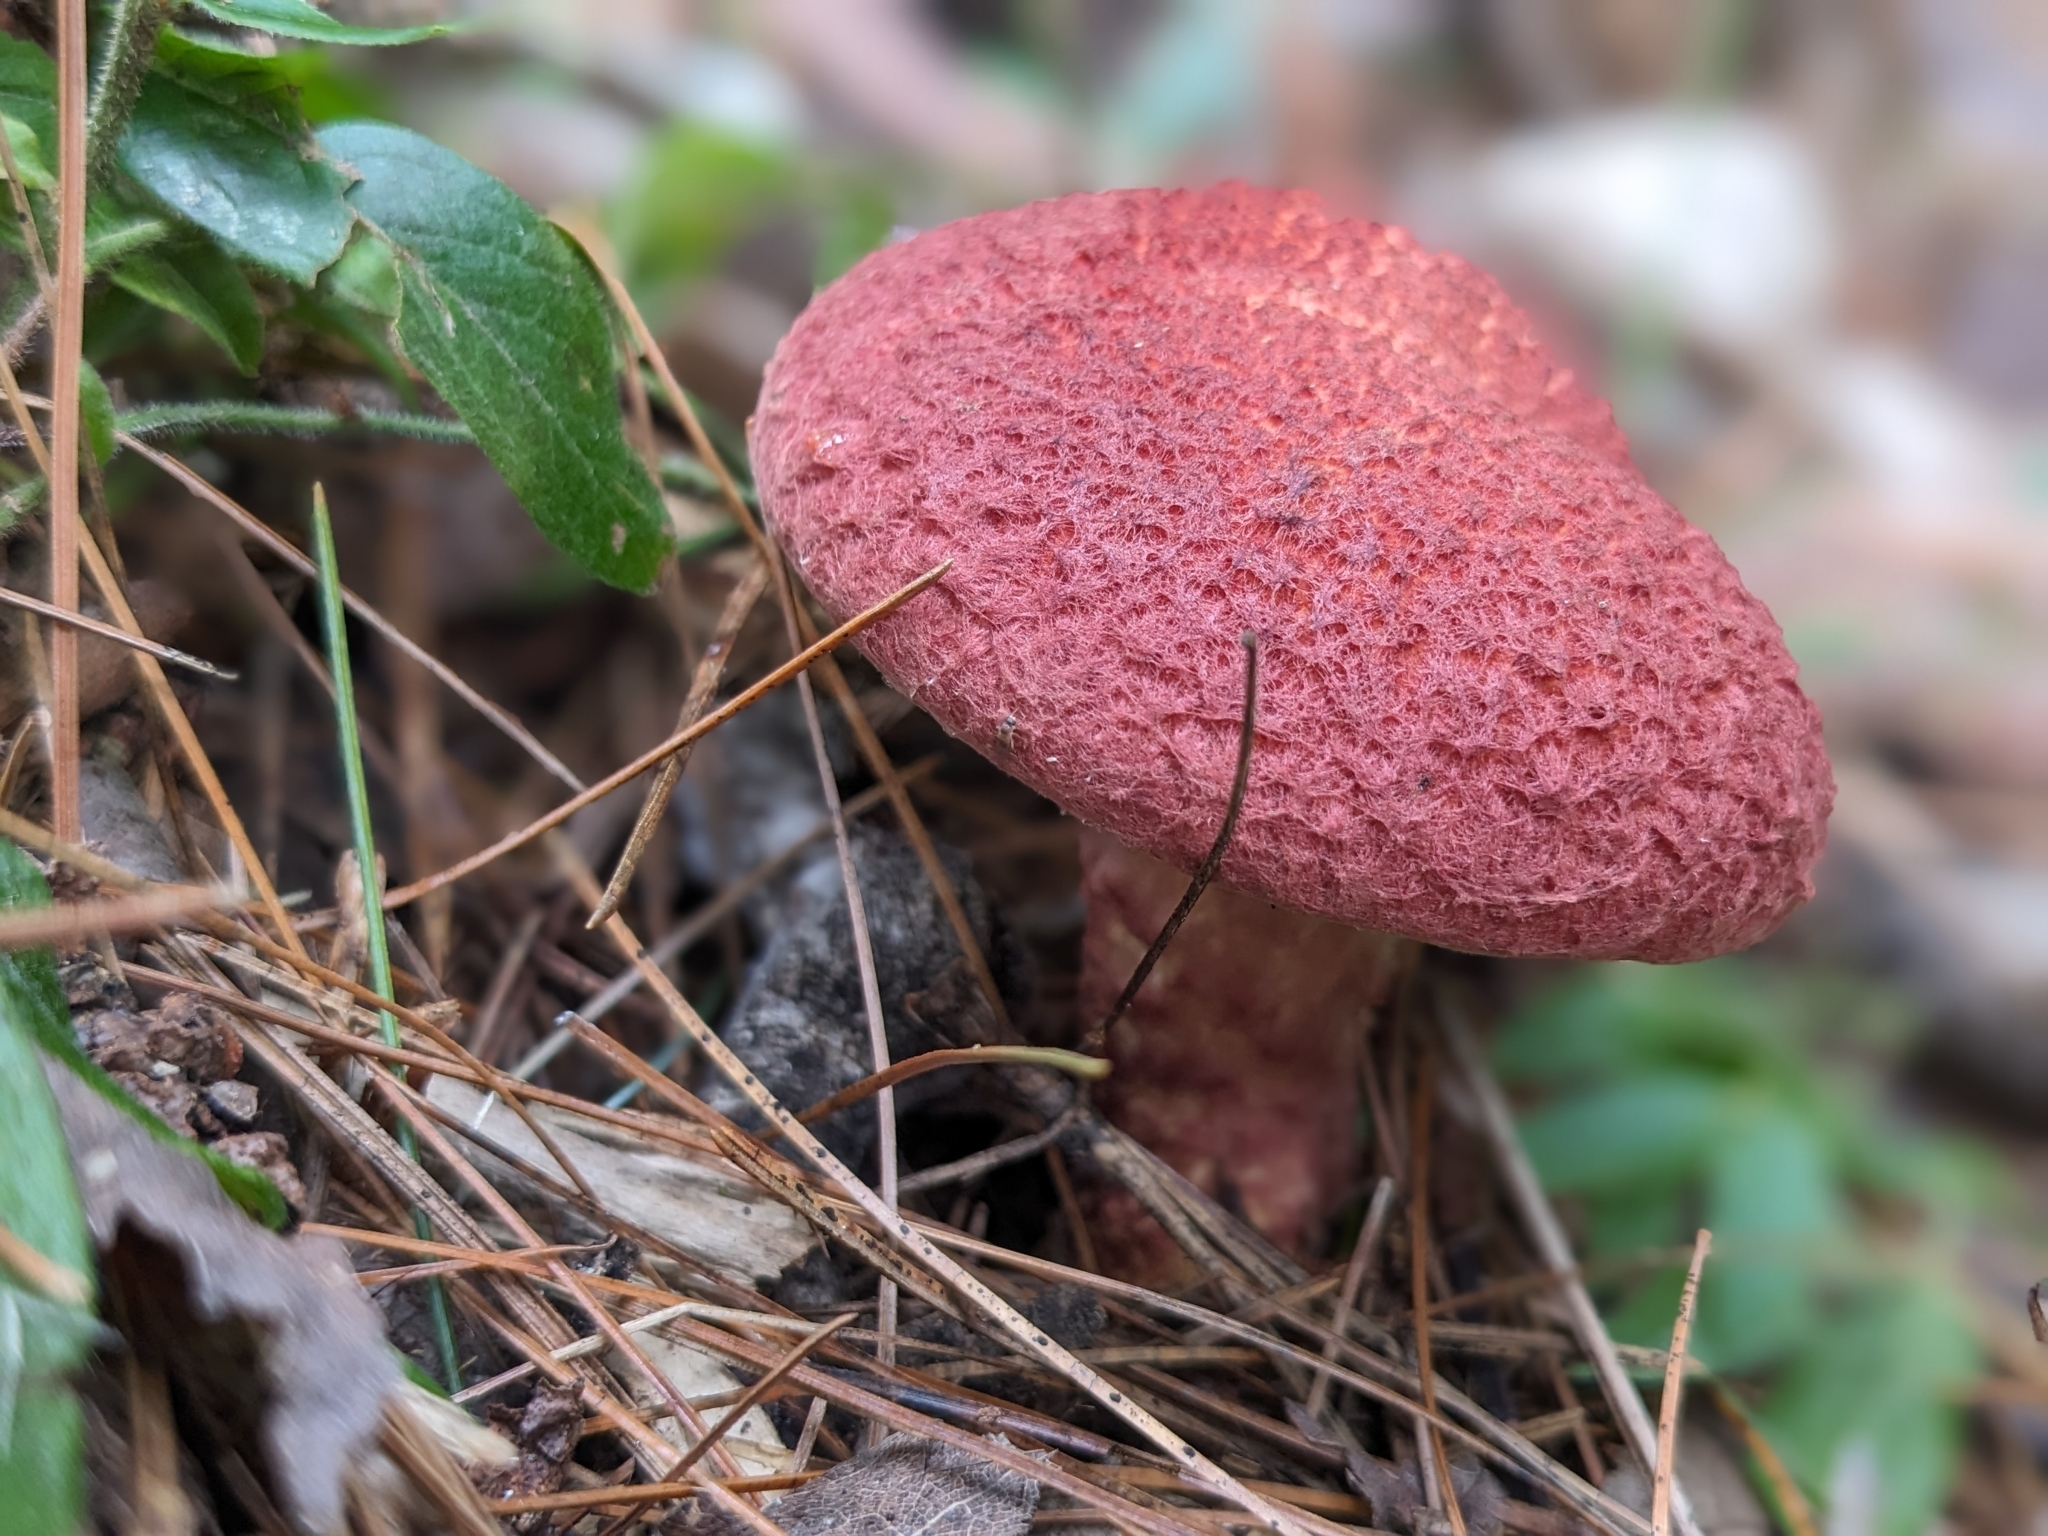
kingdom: Fungi
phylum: Basidiomycota
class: Agaricomycetes
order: Boletales
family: Suillaceae
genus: Suillus
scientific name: Suillus spraguei
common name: Painted suillus
